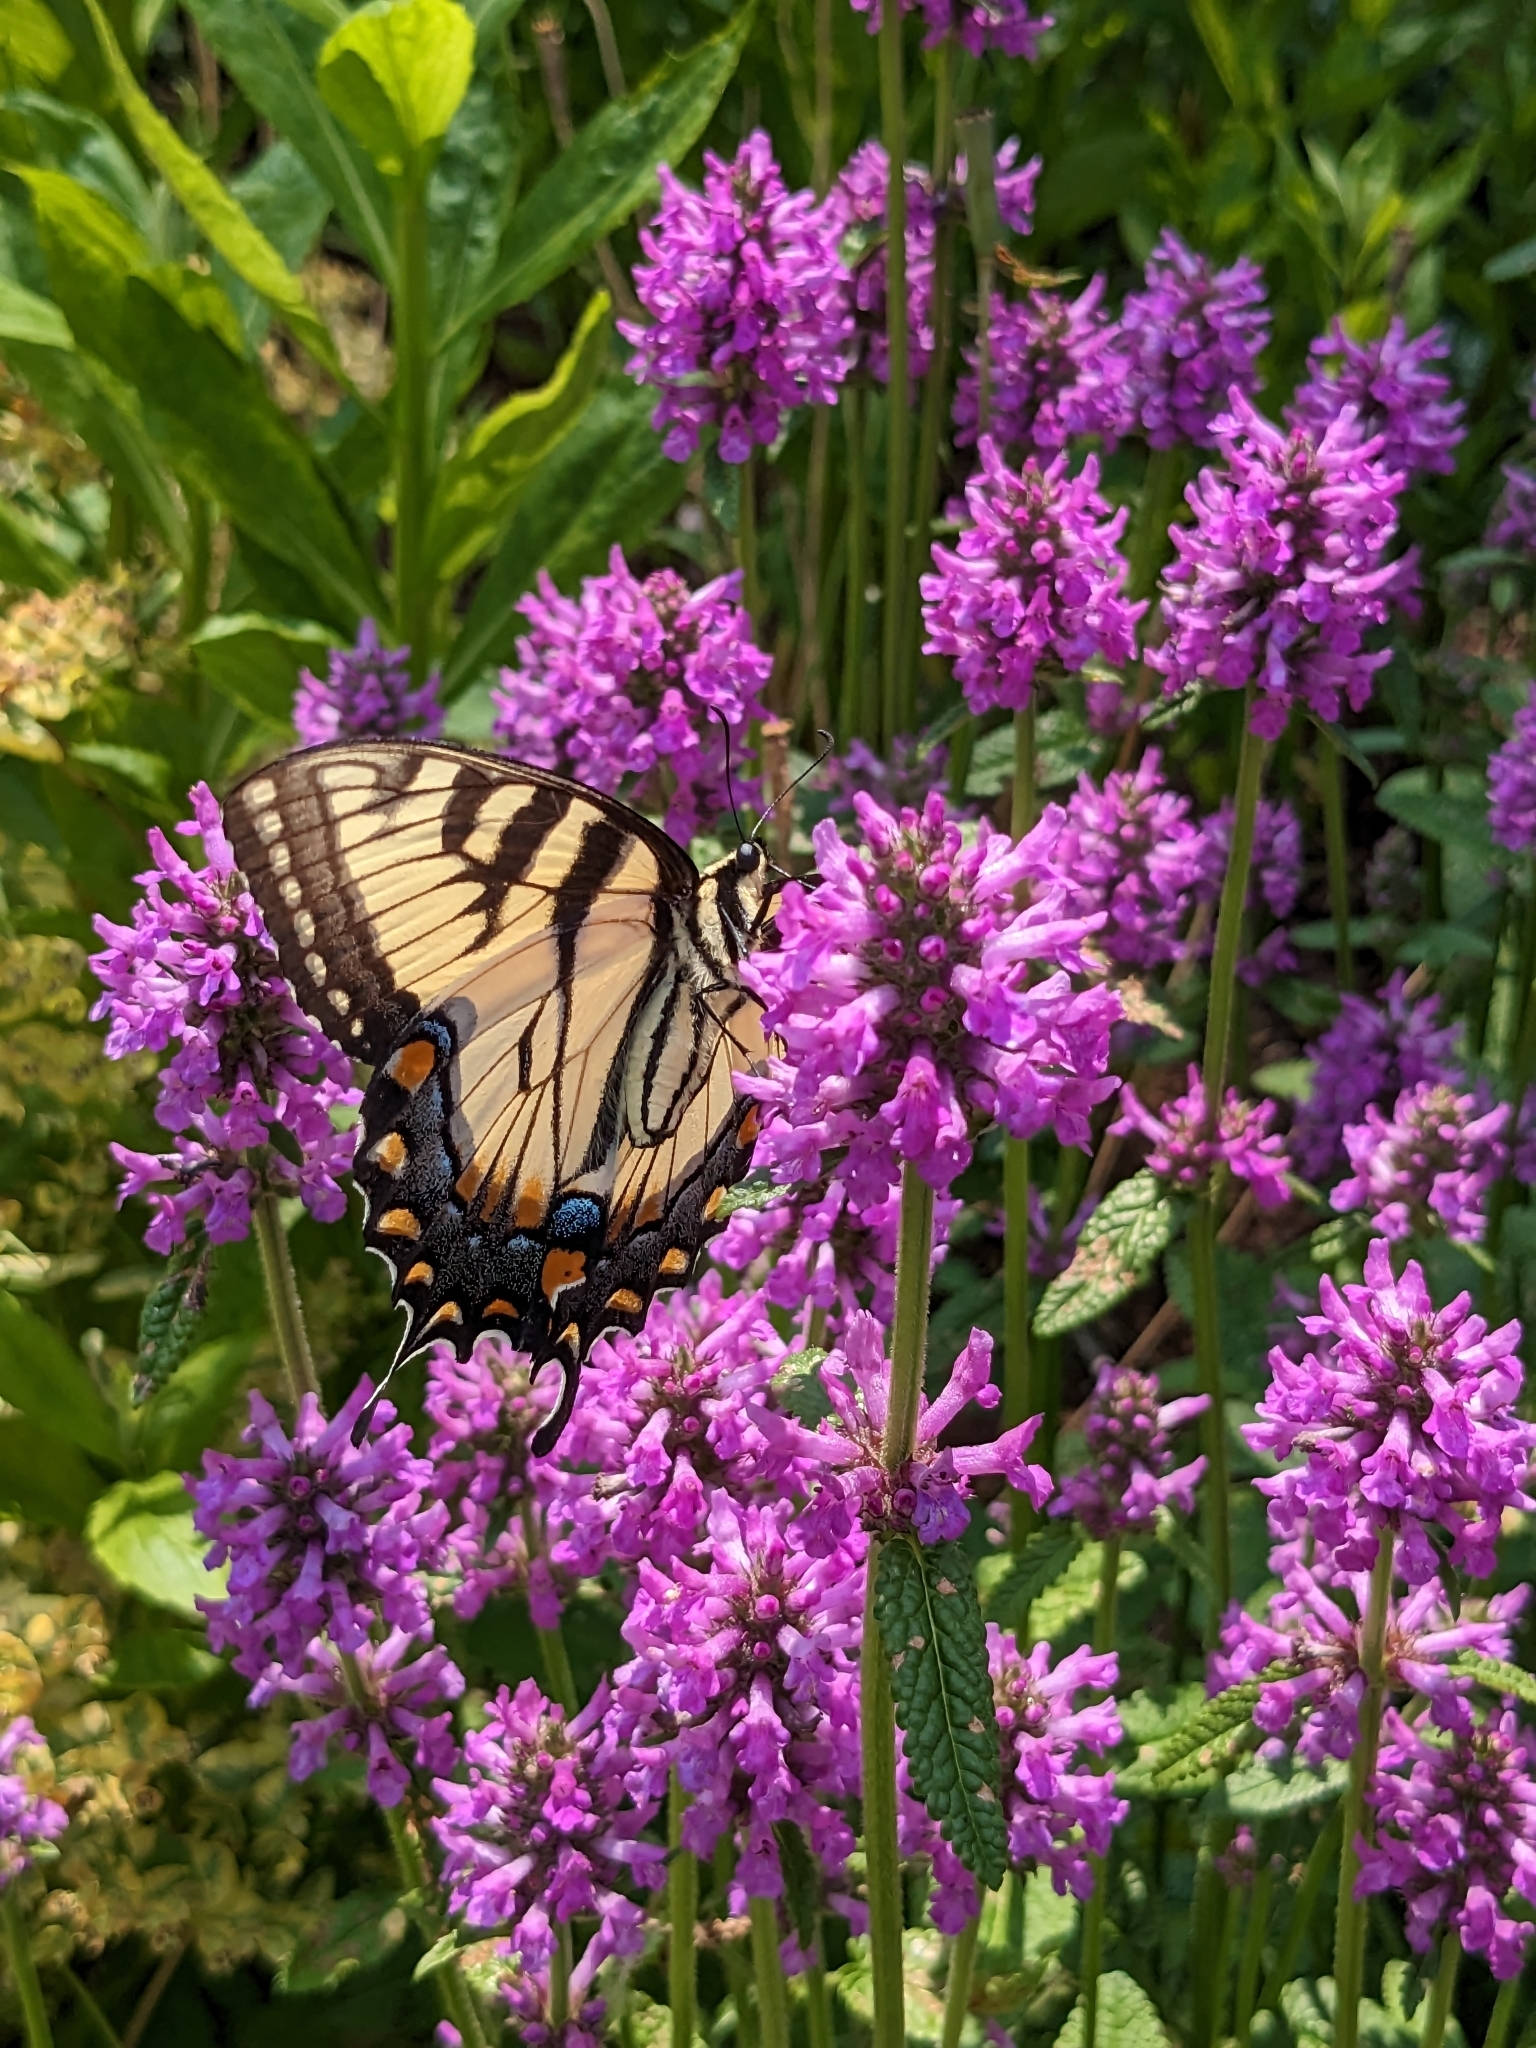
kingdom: Animalia
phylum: Arthropoda
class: Insecta
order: Lepidoptera
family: Papilionidae
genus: Papilio
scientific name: Papilio glaucus
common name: Tiger swallowtail
